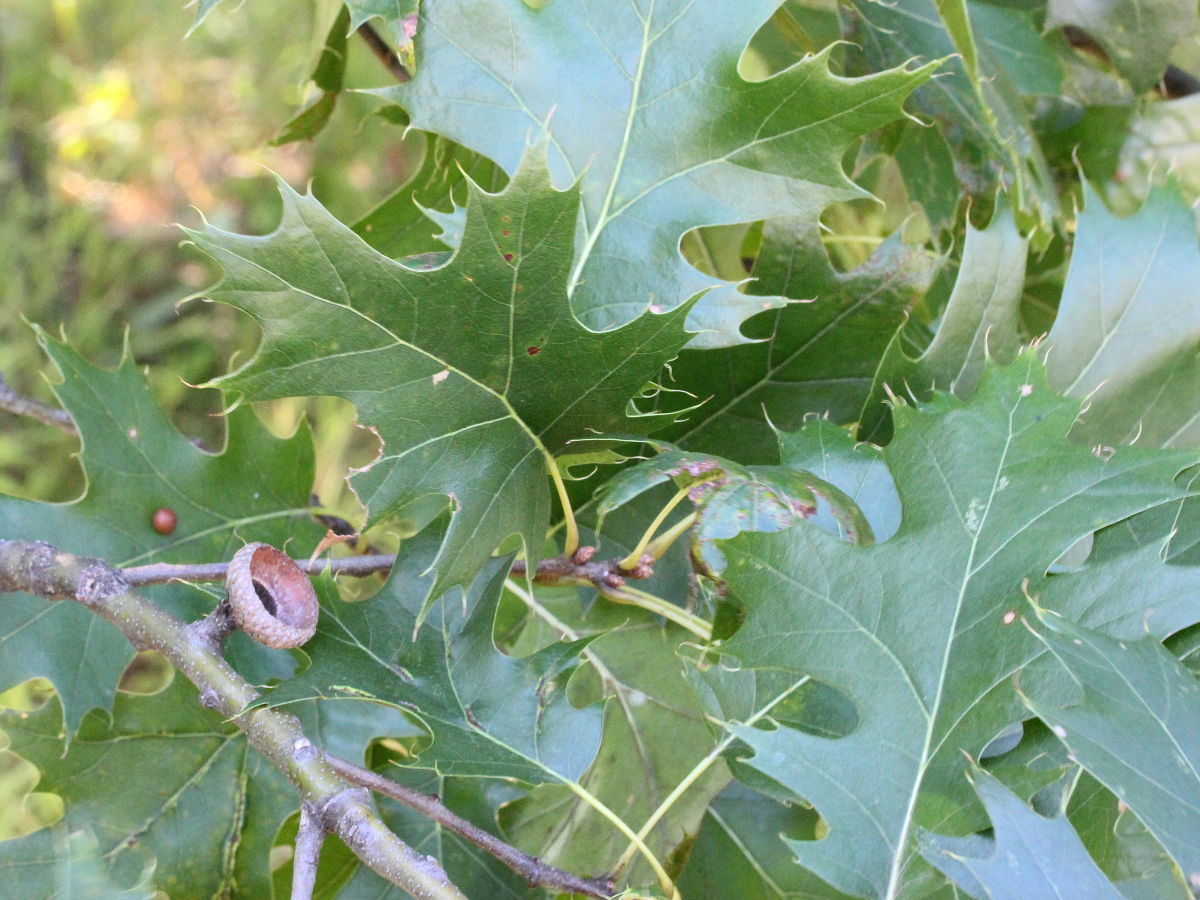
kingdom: Plantae
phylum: Tracheophyta
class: Magnoliopsida
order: Fagales
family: Fagaceae
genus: Quercus
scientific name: Quercus rubra
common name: Red oak
